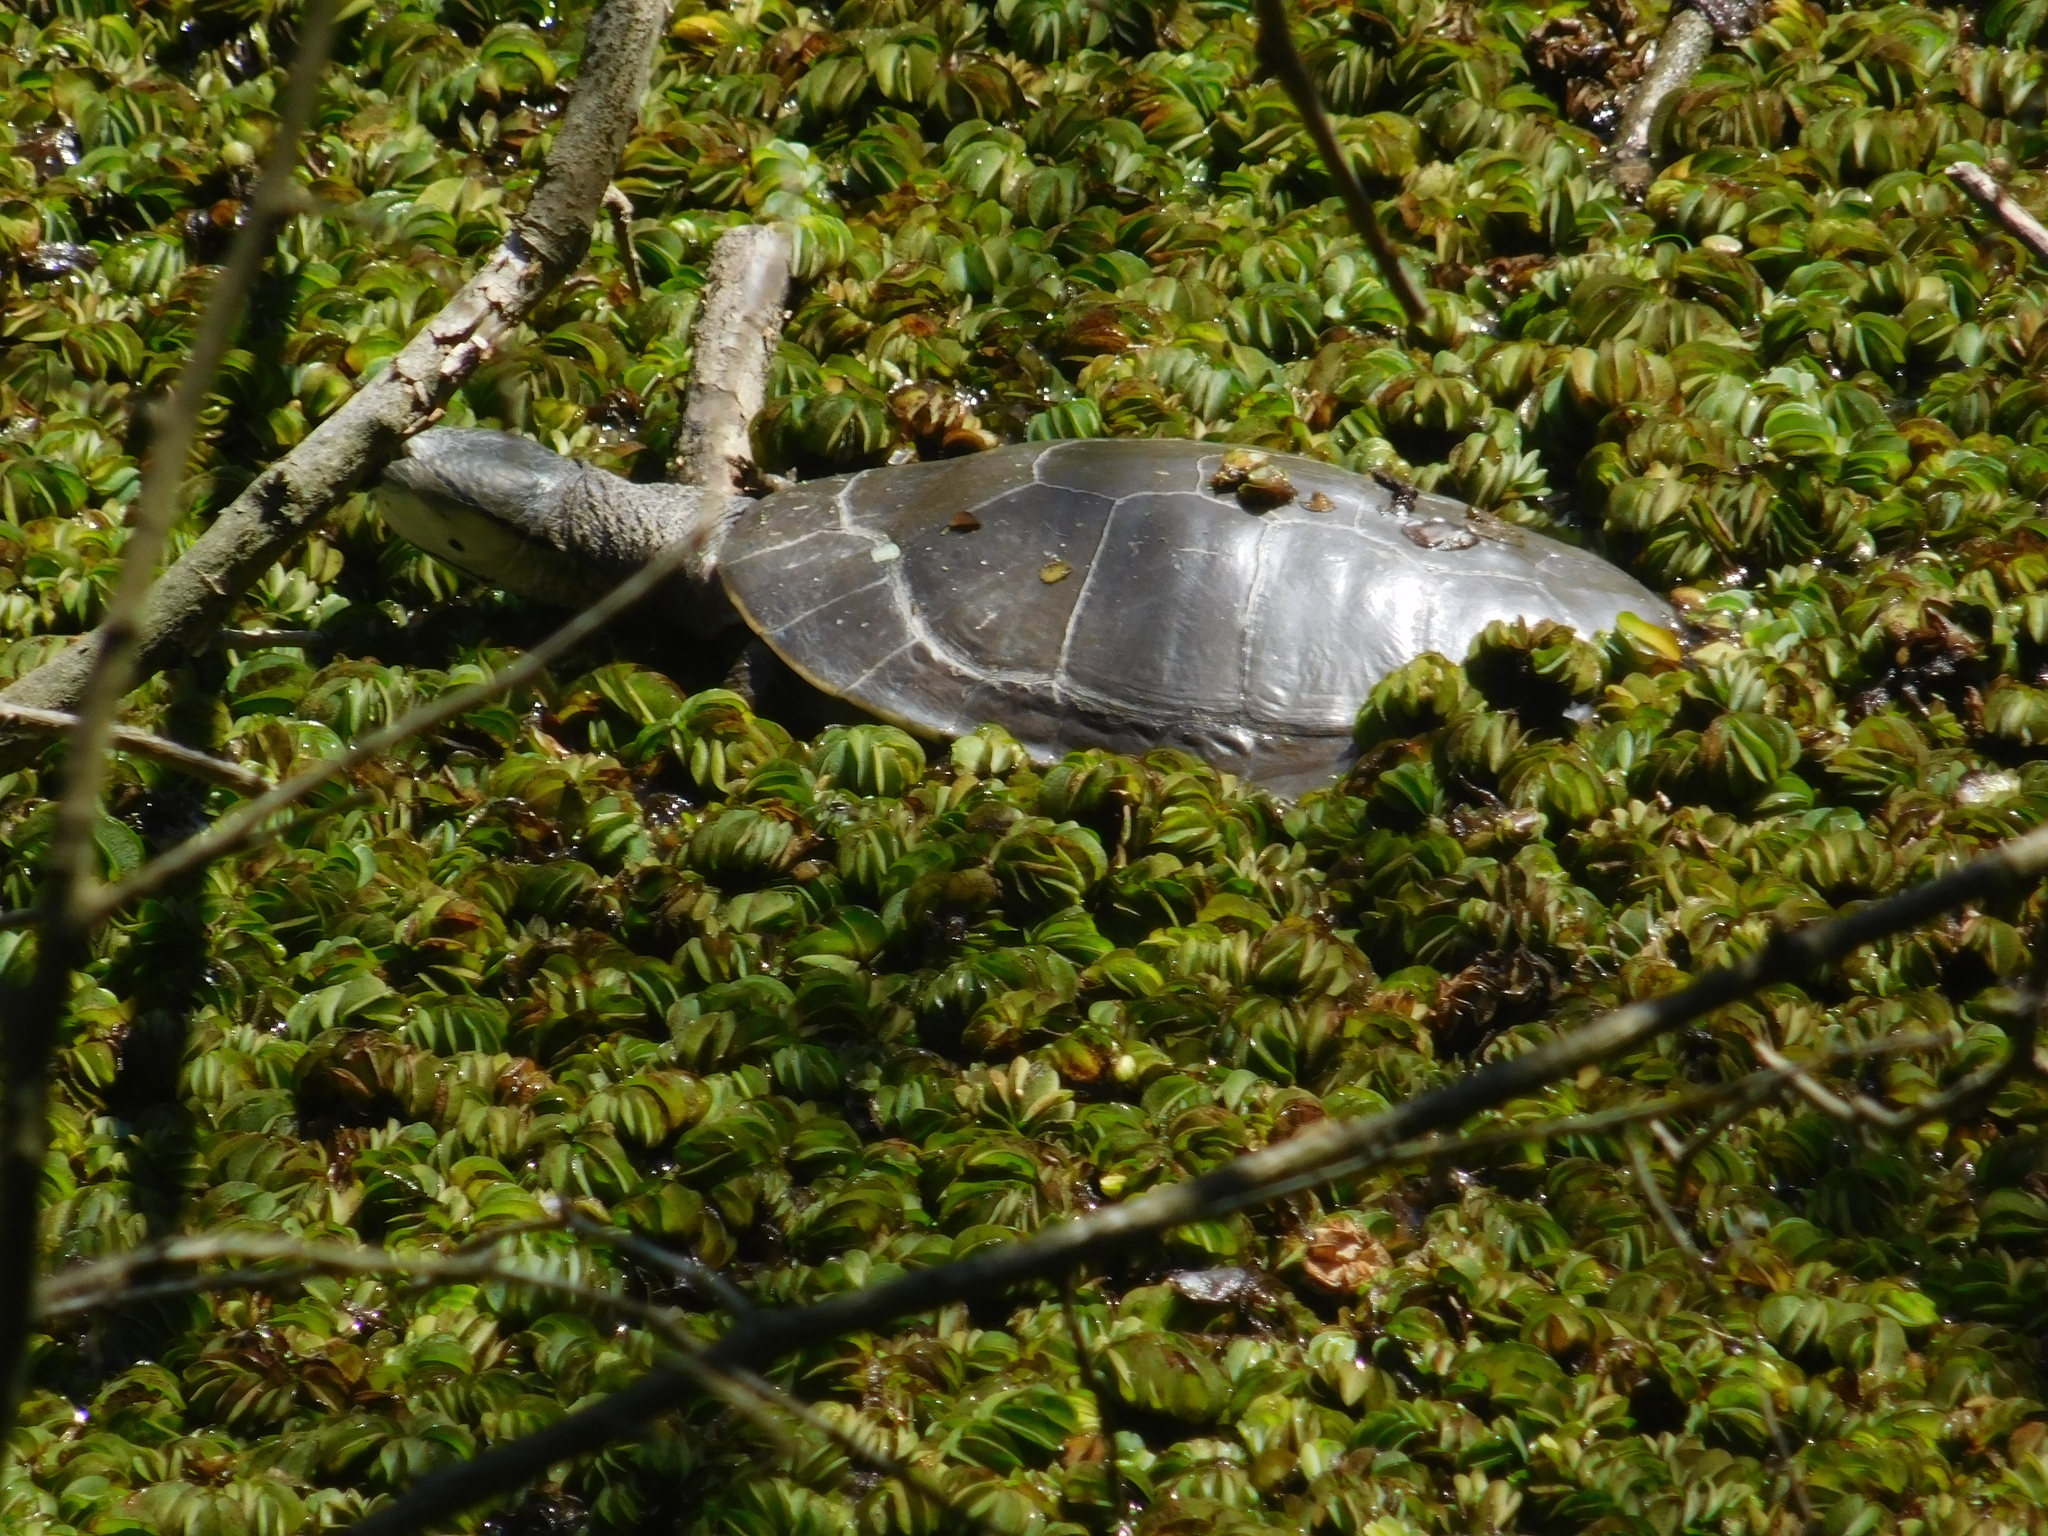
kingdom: Animalia
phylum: Chordata
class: Testudines
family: Chelidae
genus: Phrynops
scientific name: Phrynops hilarii
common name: Side-necked turtle of saint hillaire
